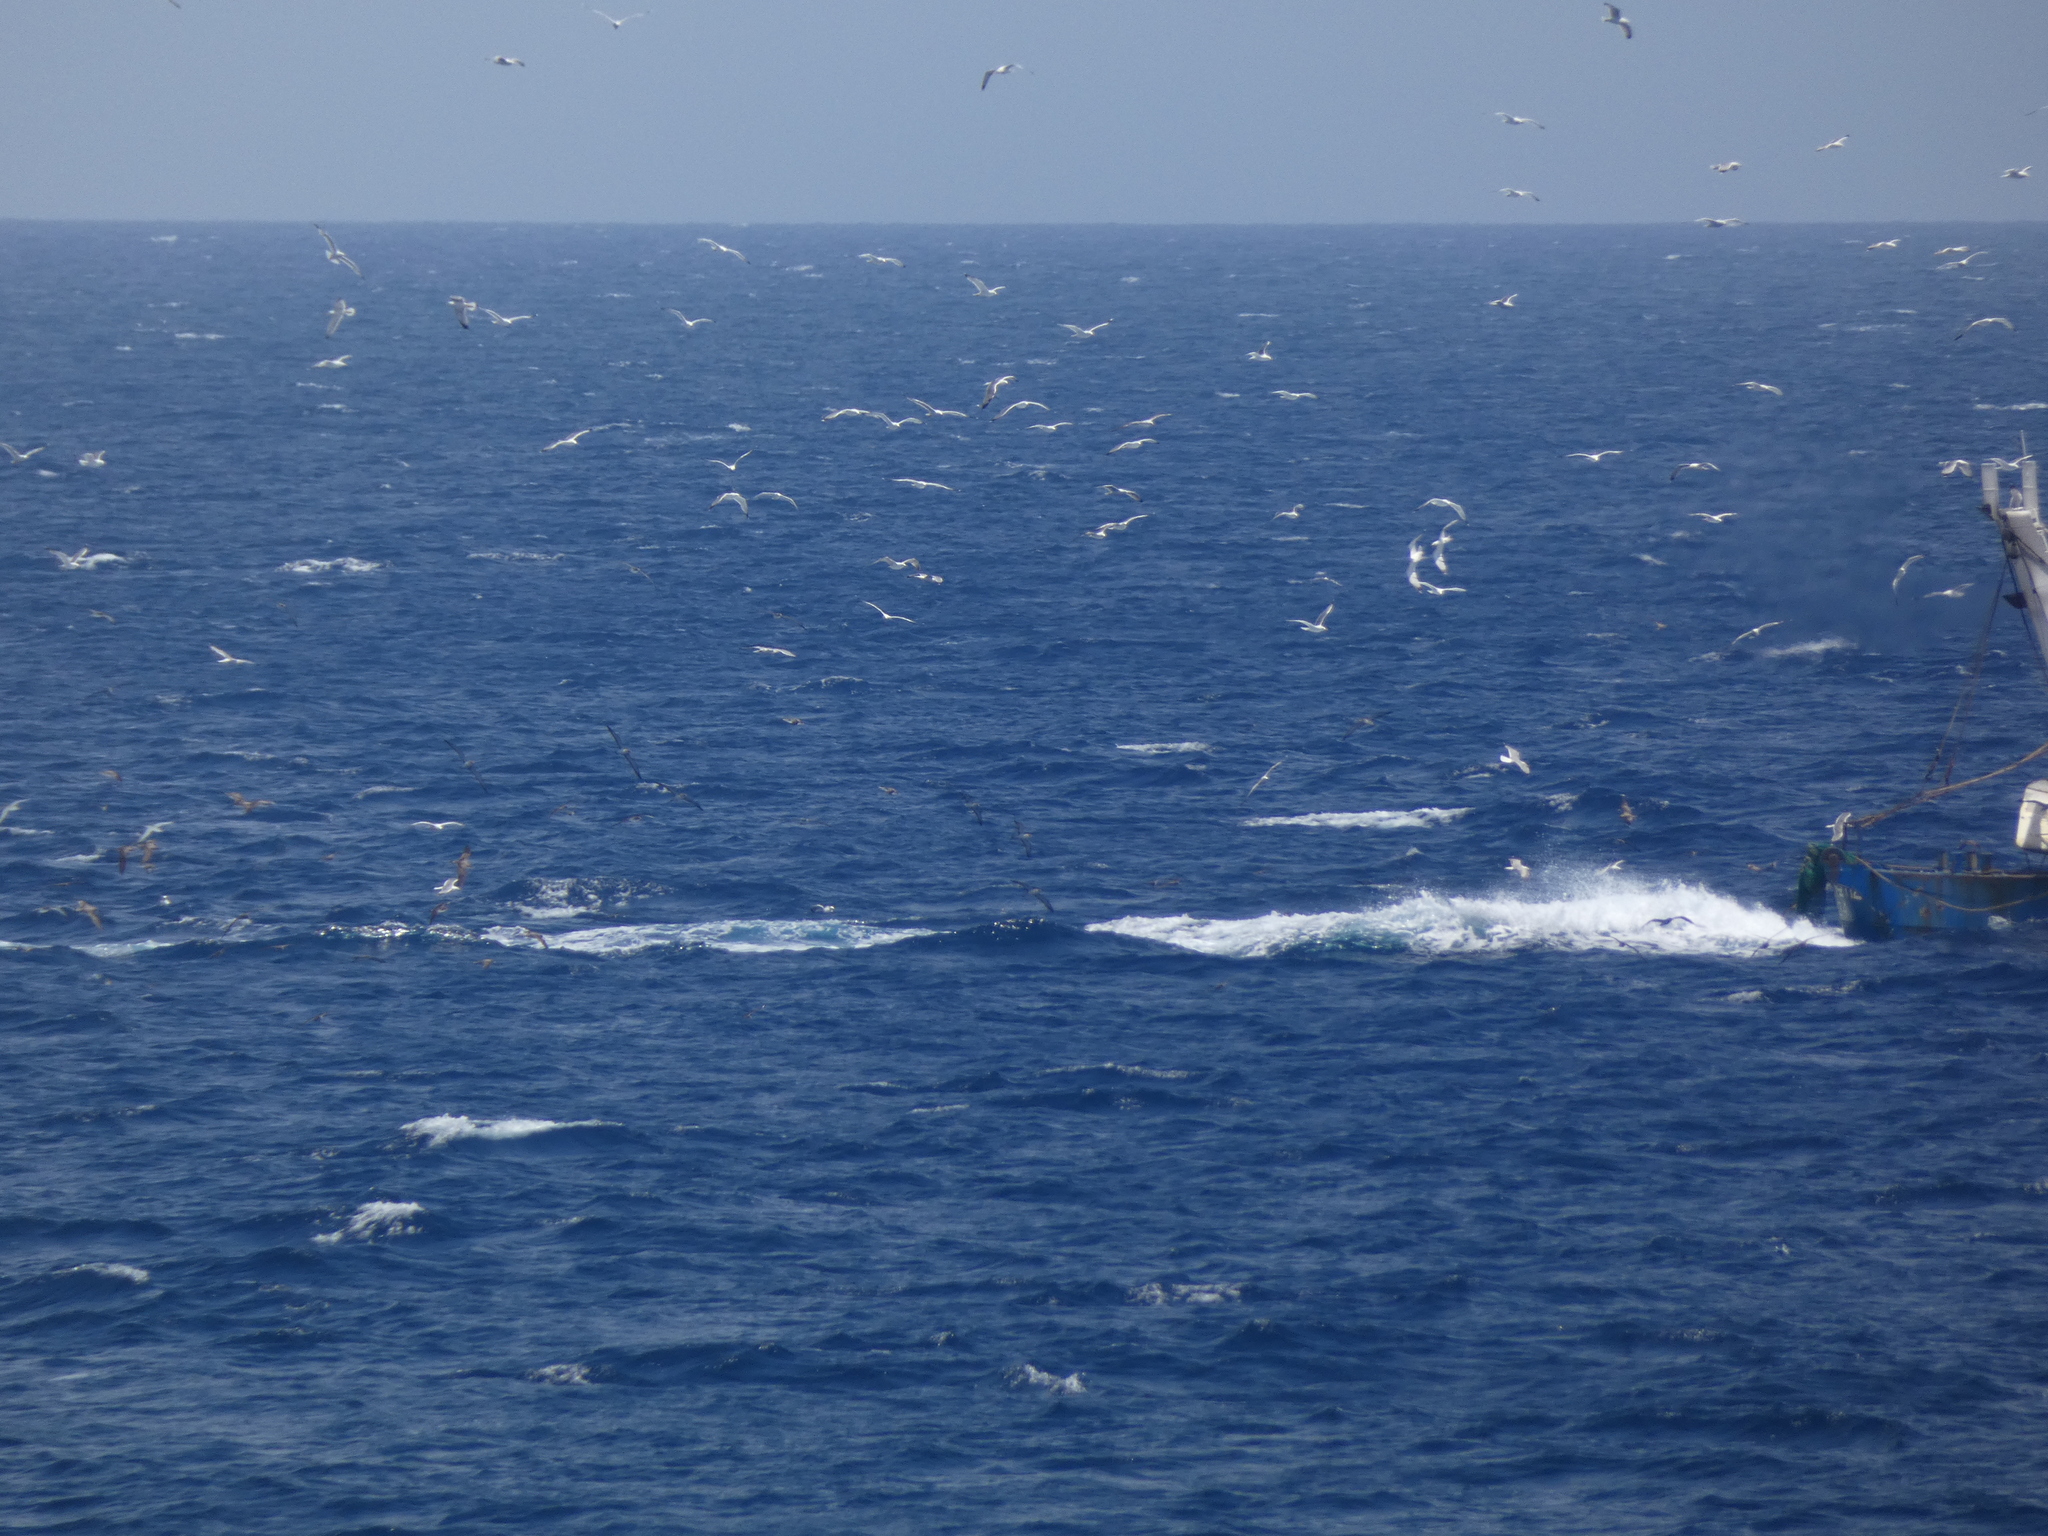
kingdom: Animalia
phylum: Chordata
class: Aves
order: Procellariiformes
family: Procellariidae
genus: Calonectris
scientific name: Calonectris diomedea
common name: Cory's shearwater
